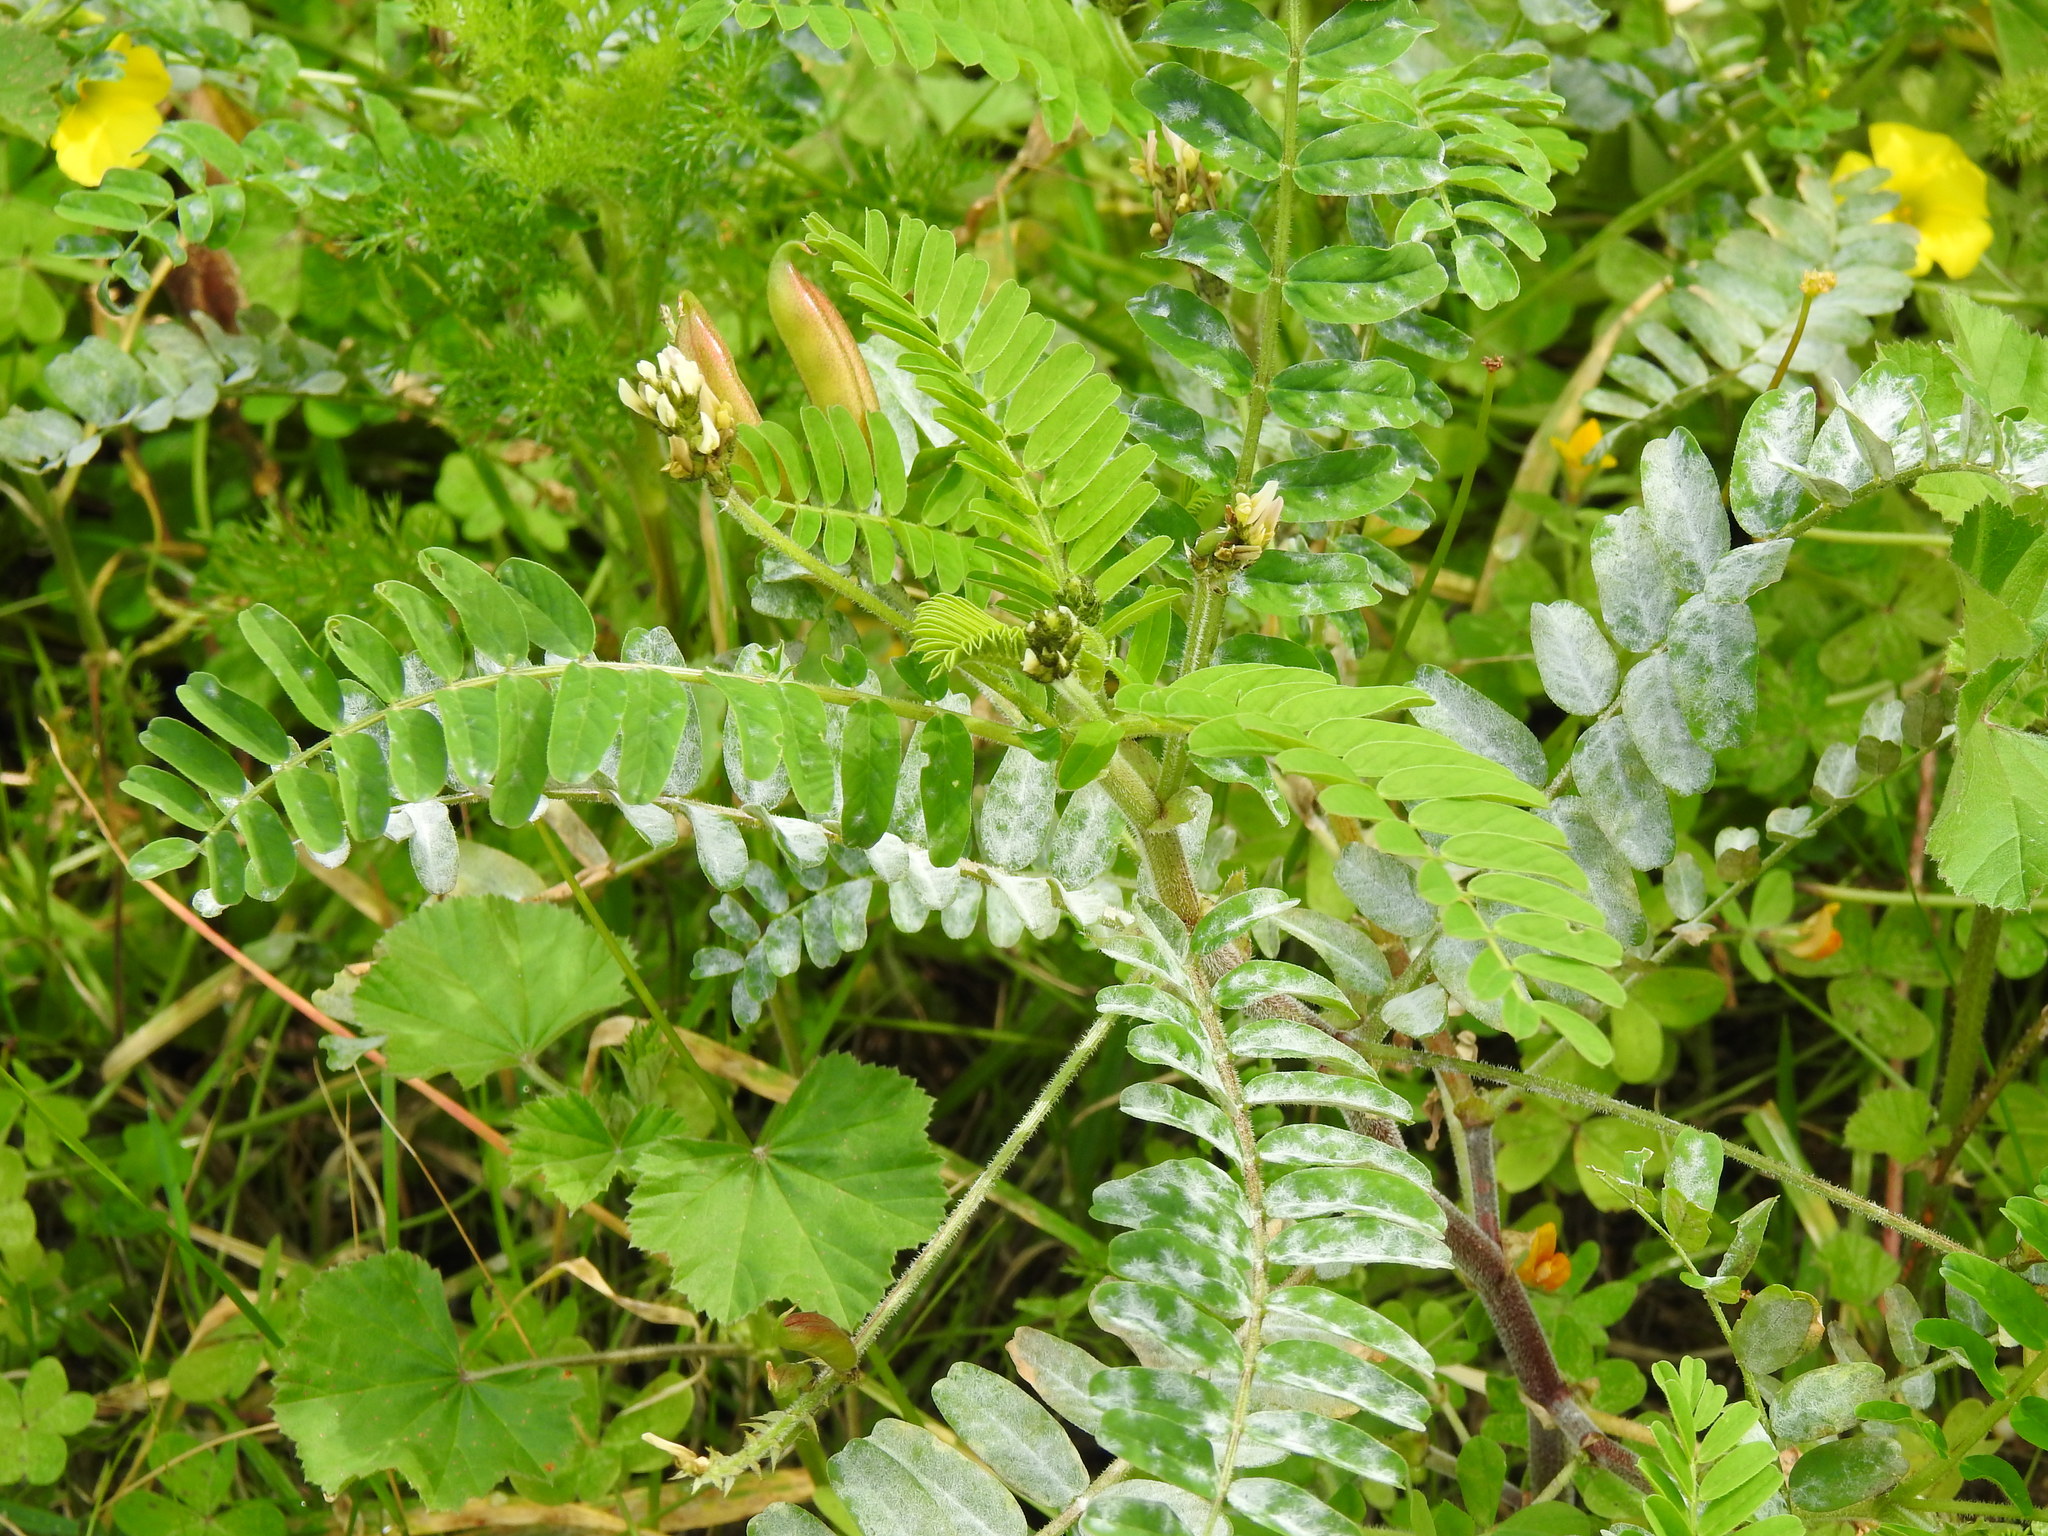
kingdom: Plantae
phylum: Tracheophyta
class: Magnoliopsida
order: Fabales
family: Fabaceae
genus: Astragalus
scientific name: Astragalus boeticus
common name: Milk-vetch
